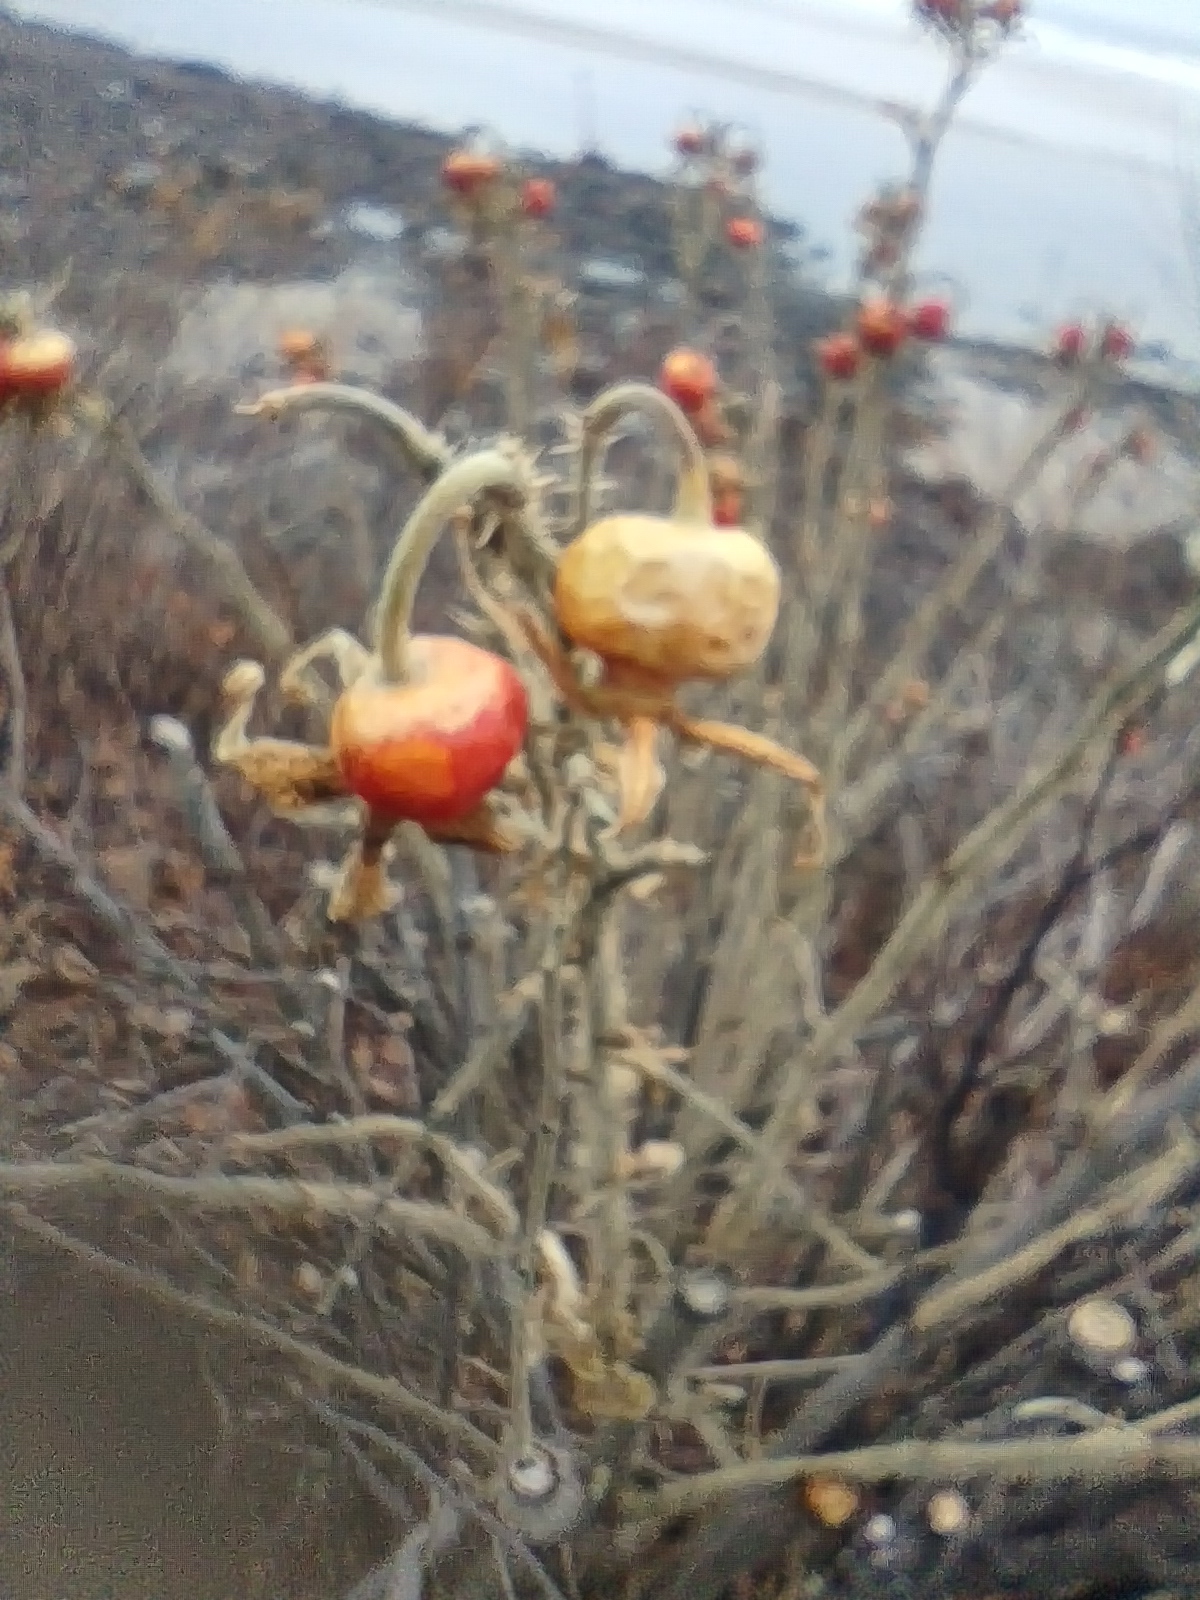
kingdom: Plantae
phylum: Tracheophyta
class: Magnoliopsida
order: Rosales
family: Rosaceae
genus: Rosa
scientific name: Rosa rugosa
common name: Japanese rose
